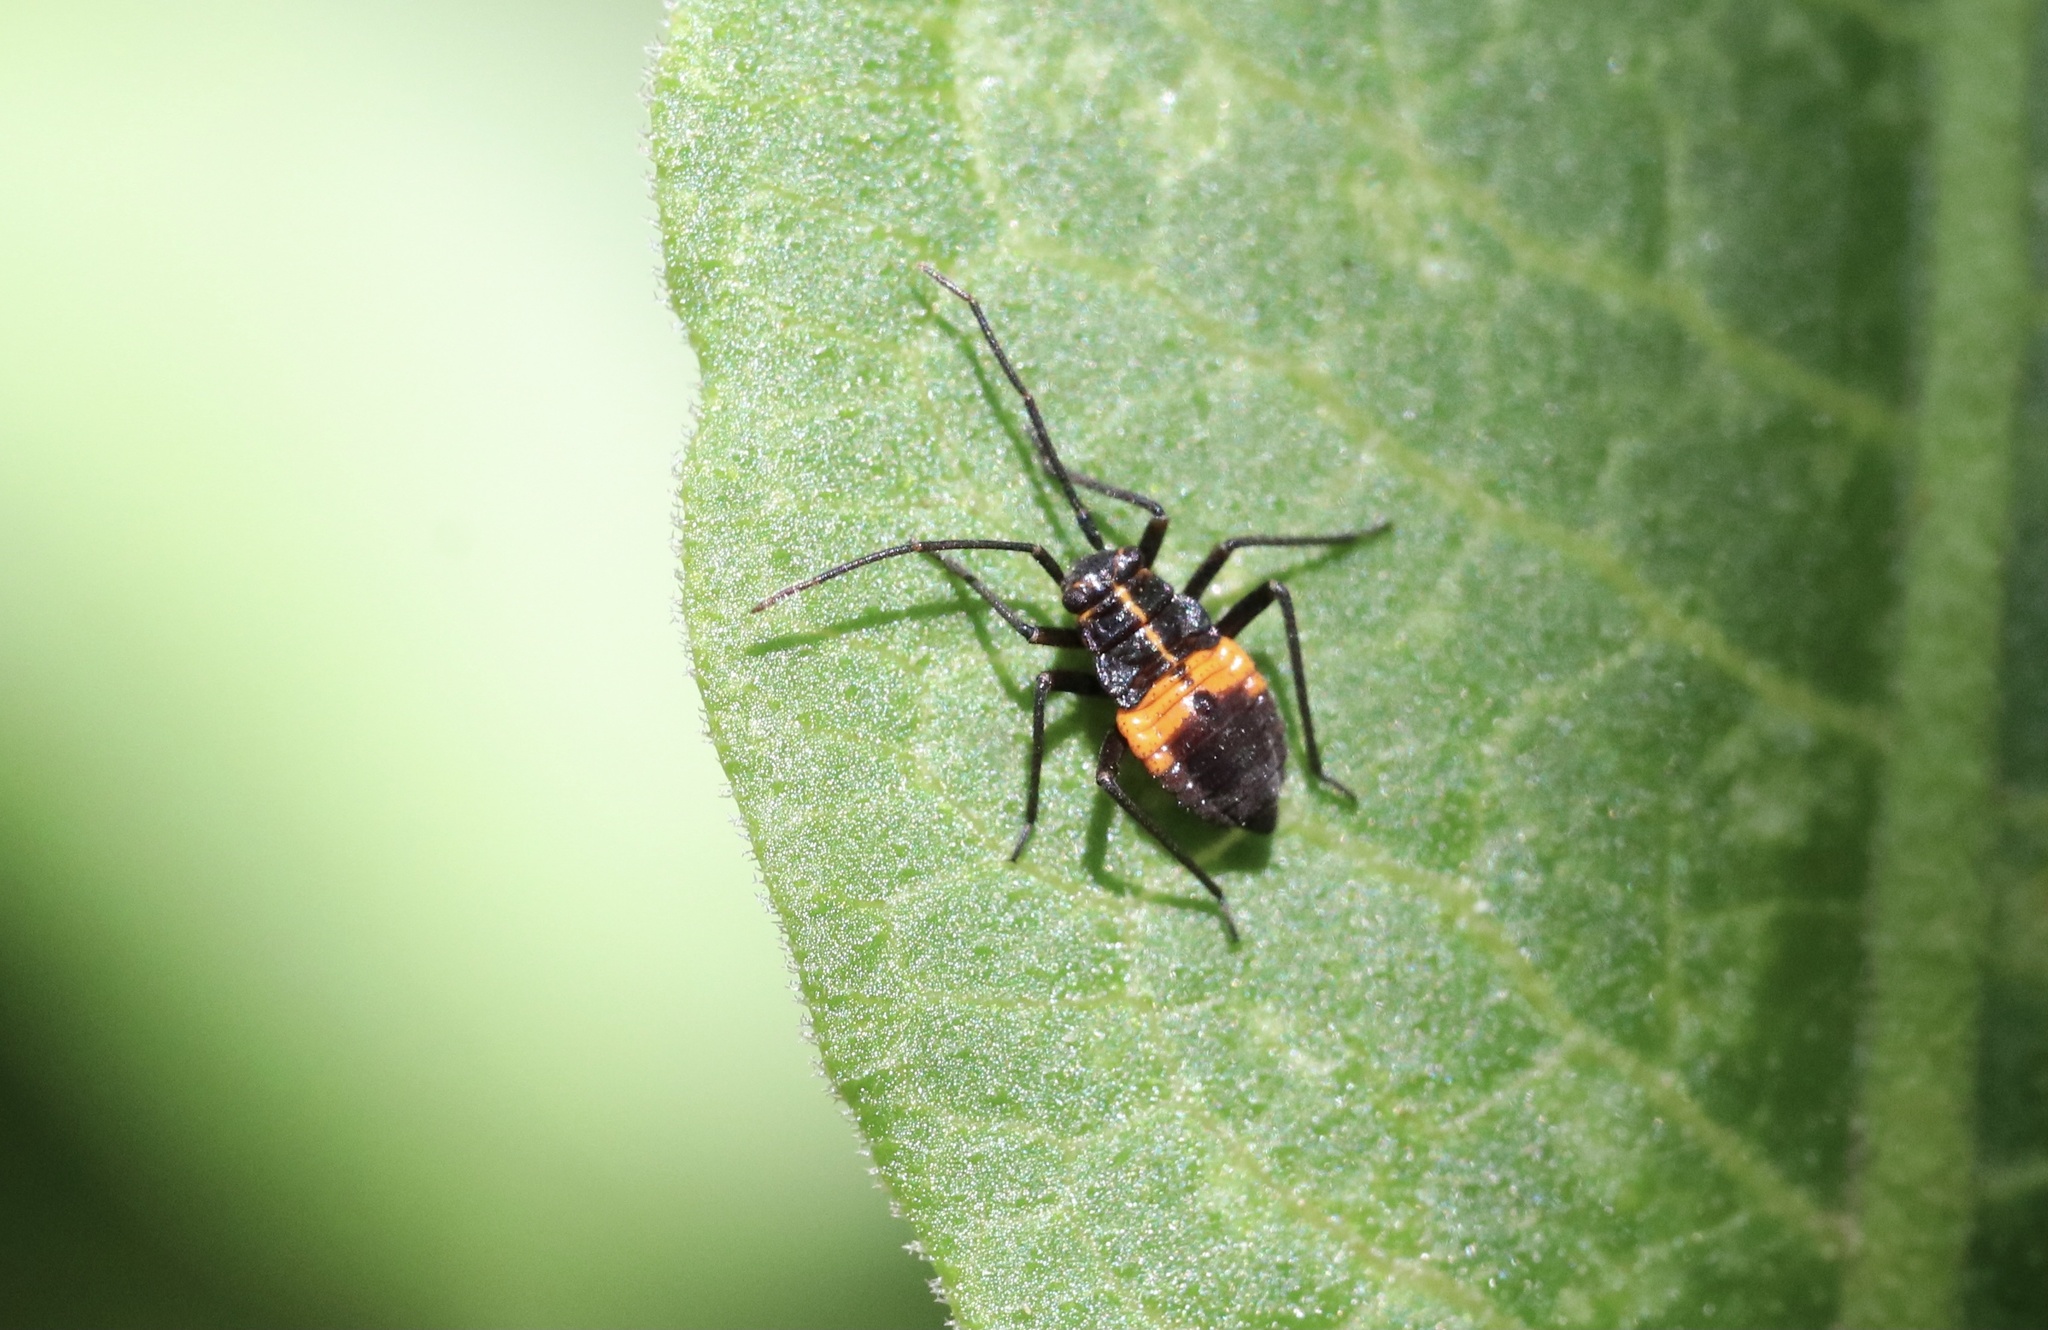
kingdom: Animalia
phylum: Arthropoda
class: Insecta
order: Hemiptera
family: Miridae
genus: Eurylomata
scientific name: Eurylomata picturata
